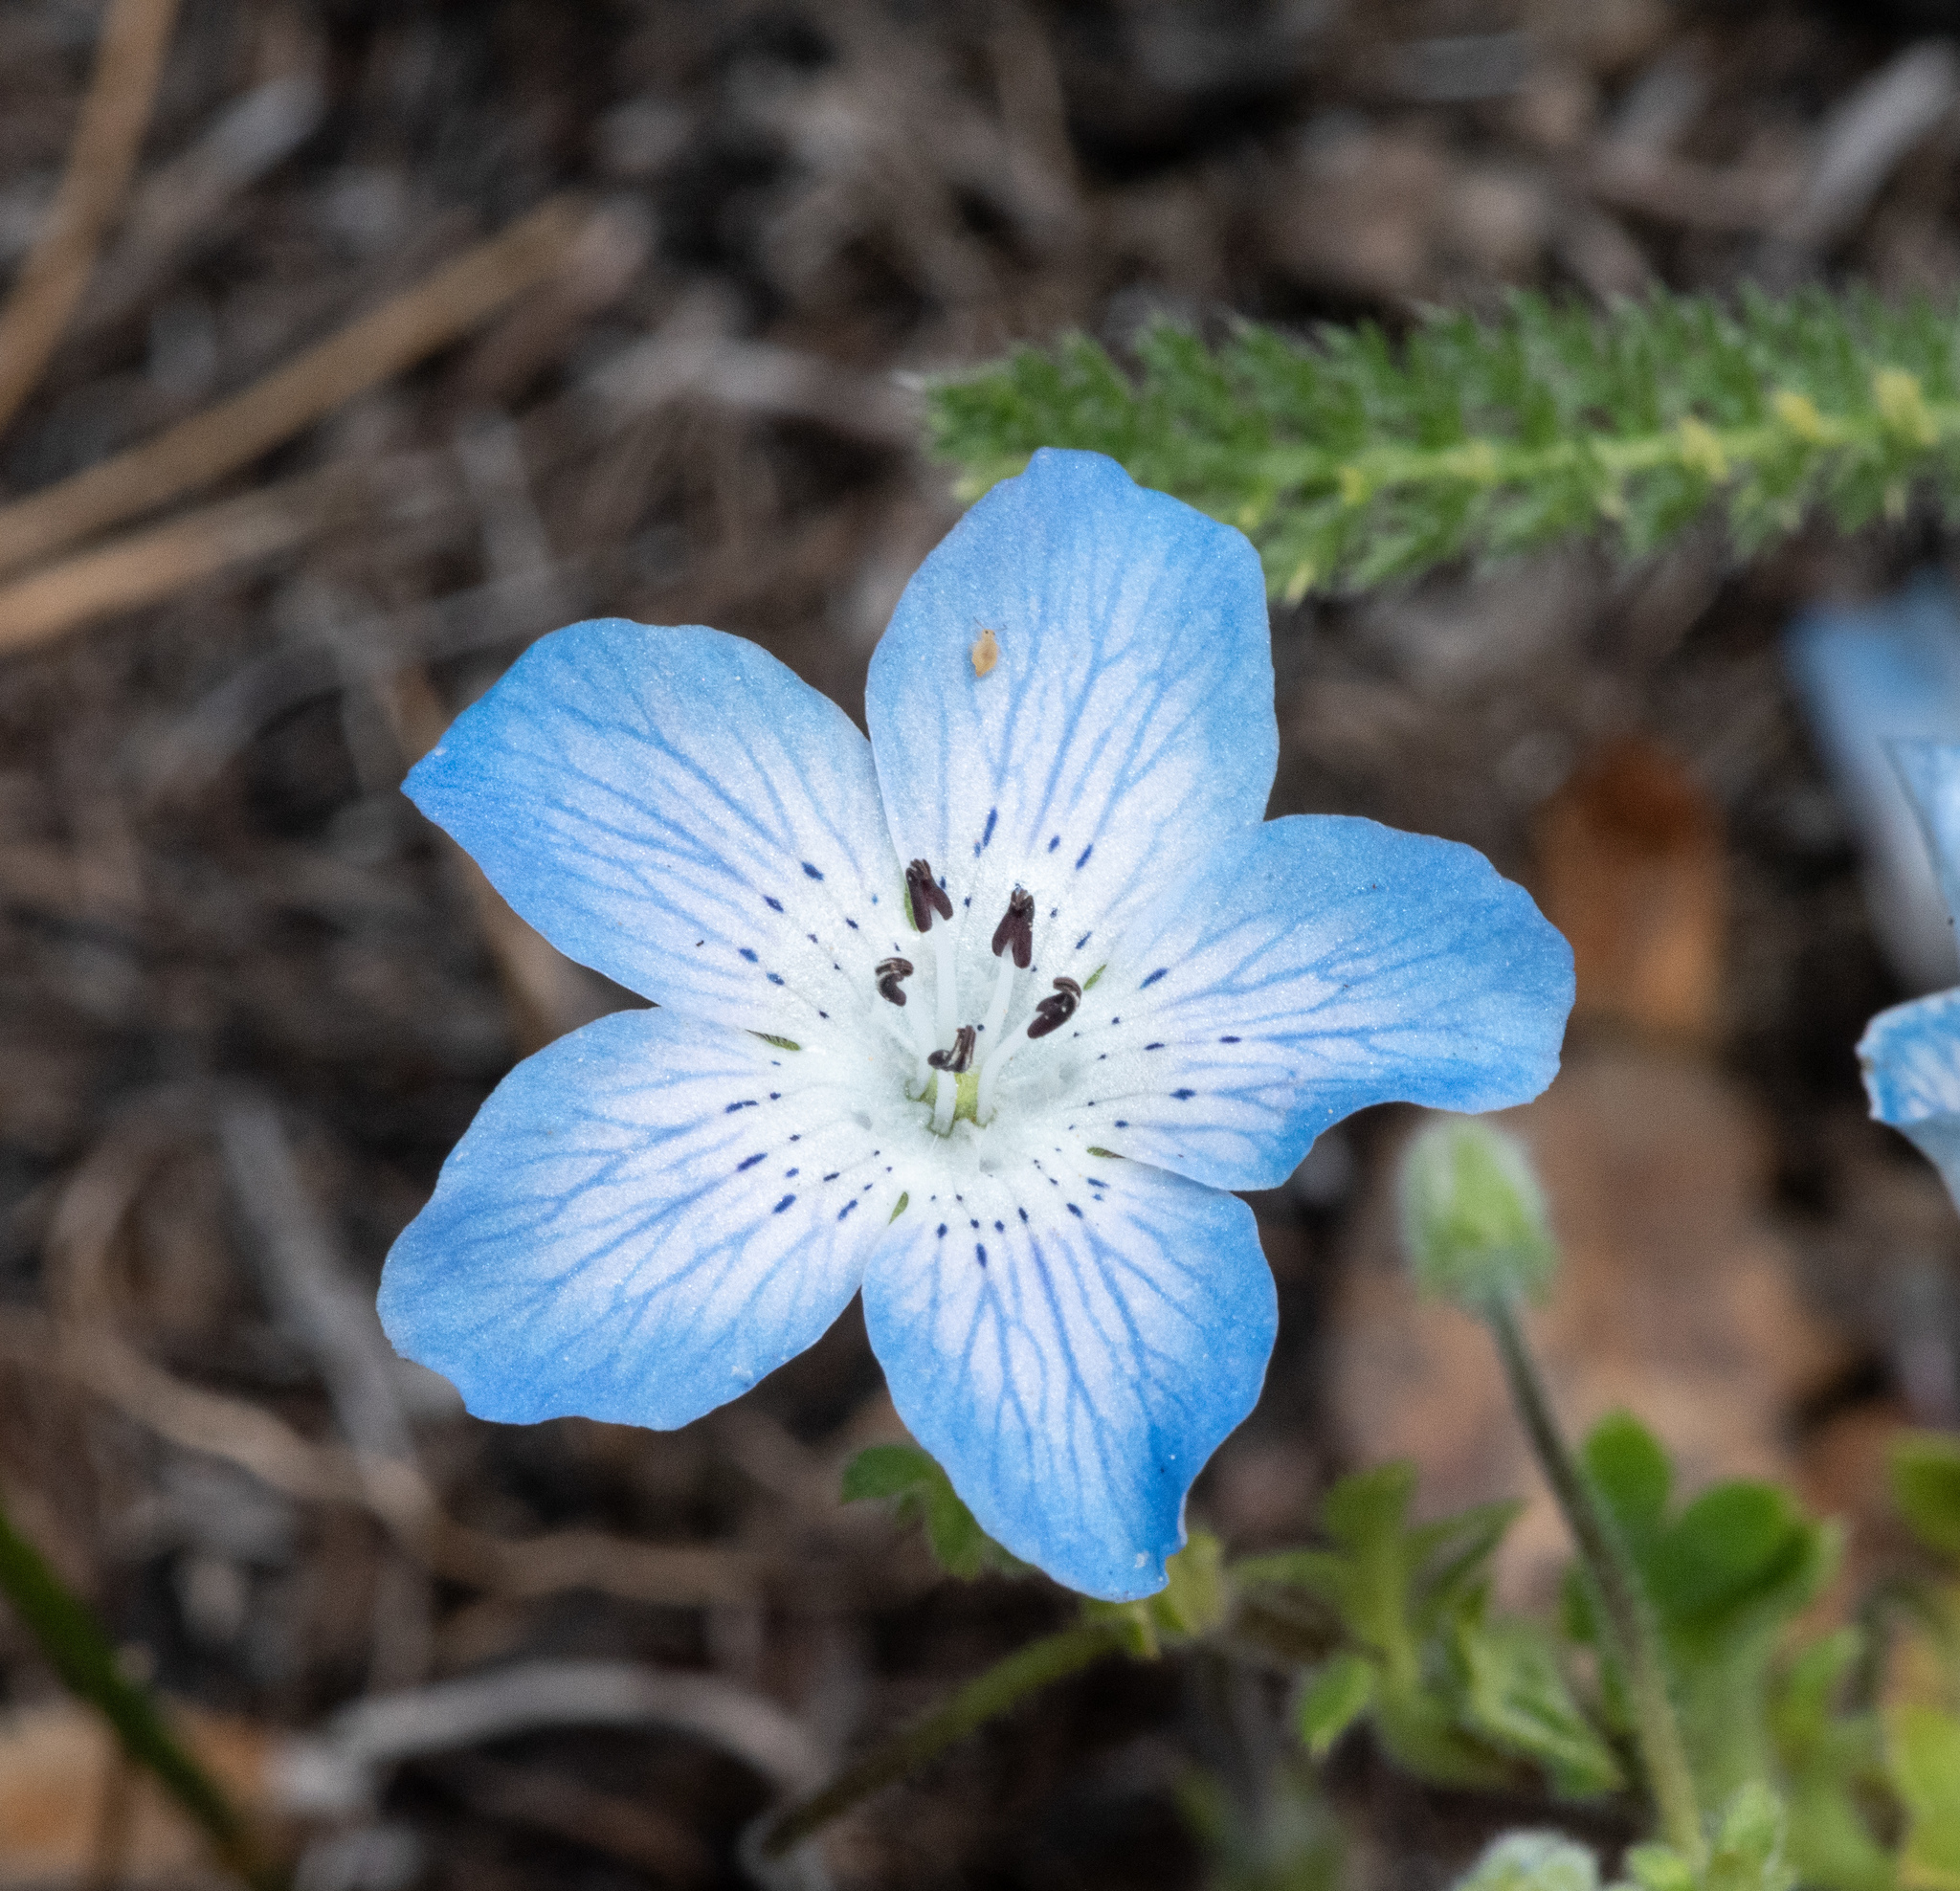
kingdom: Plantae
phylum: Tracheophyta
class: Magnoliopsida
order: Boraginales
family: Hydrophyllaceae
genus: Nemophila
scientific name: Nemophila menziesii
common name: Baby's-blue-eyes
